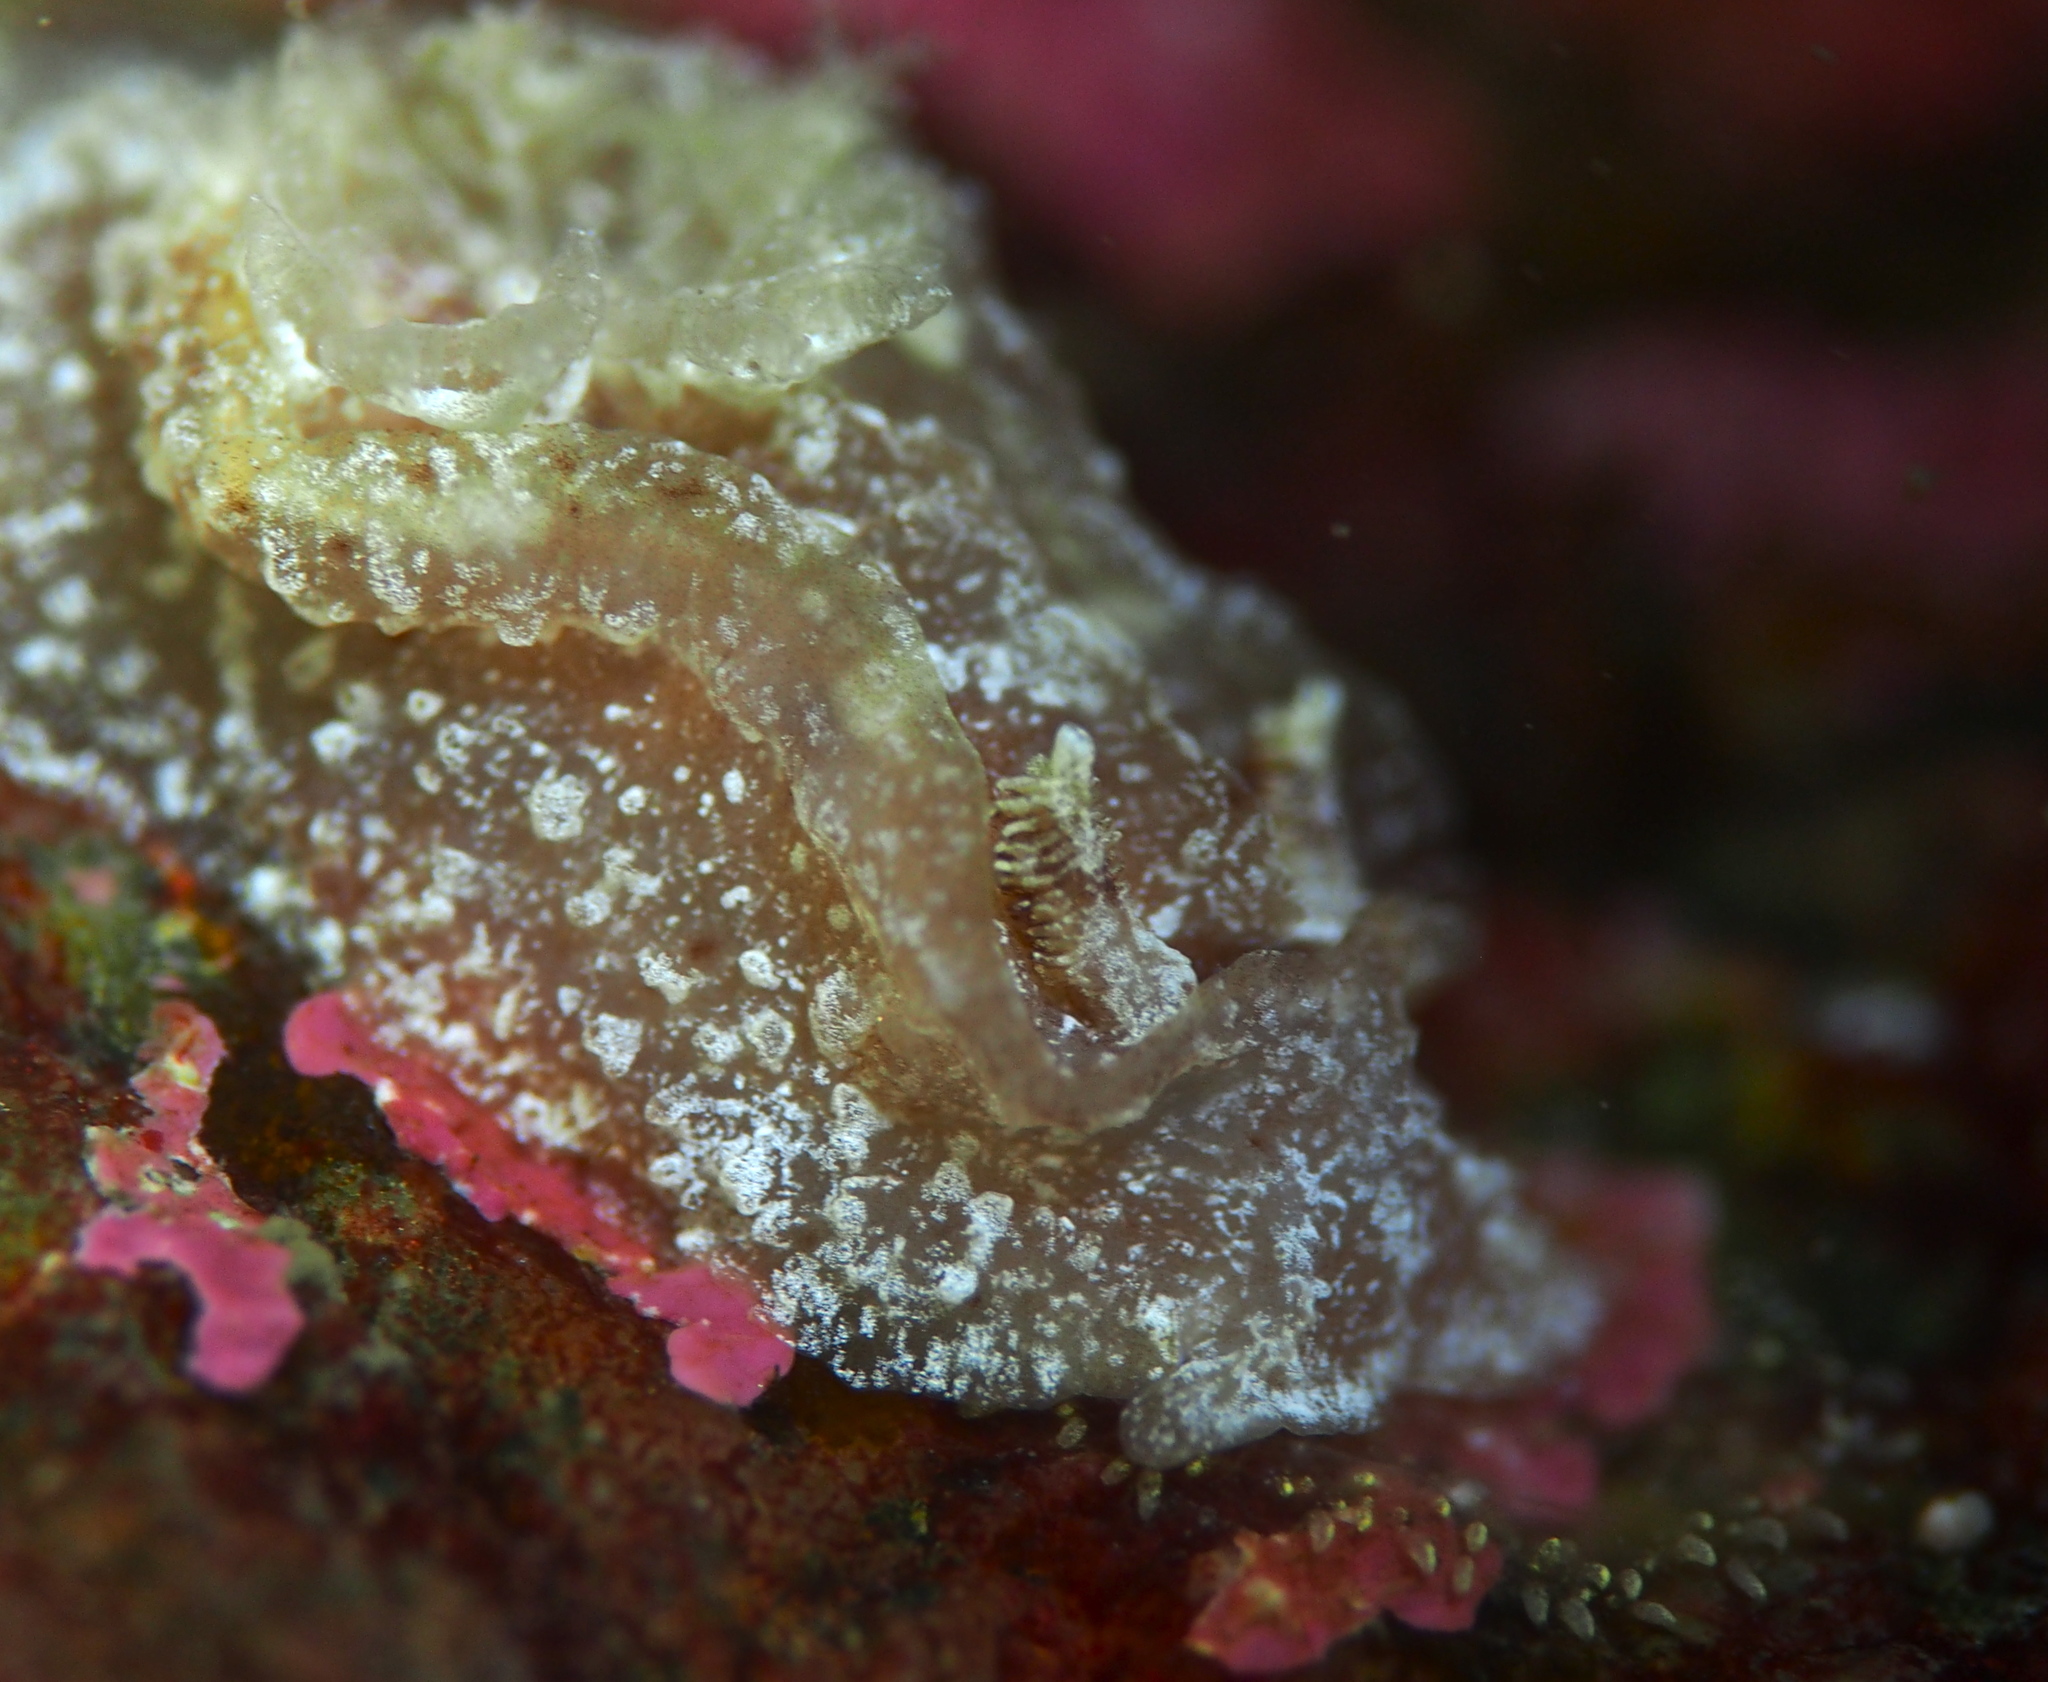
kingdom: Animalia
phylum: Mollusca
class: Gastropoda
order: Nudibranchia
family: Goniodorididae
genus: Pelagella
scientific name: Pelagella castanea
